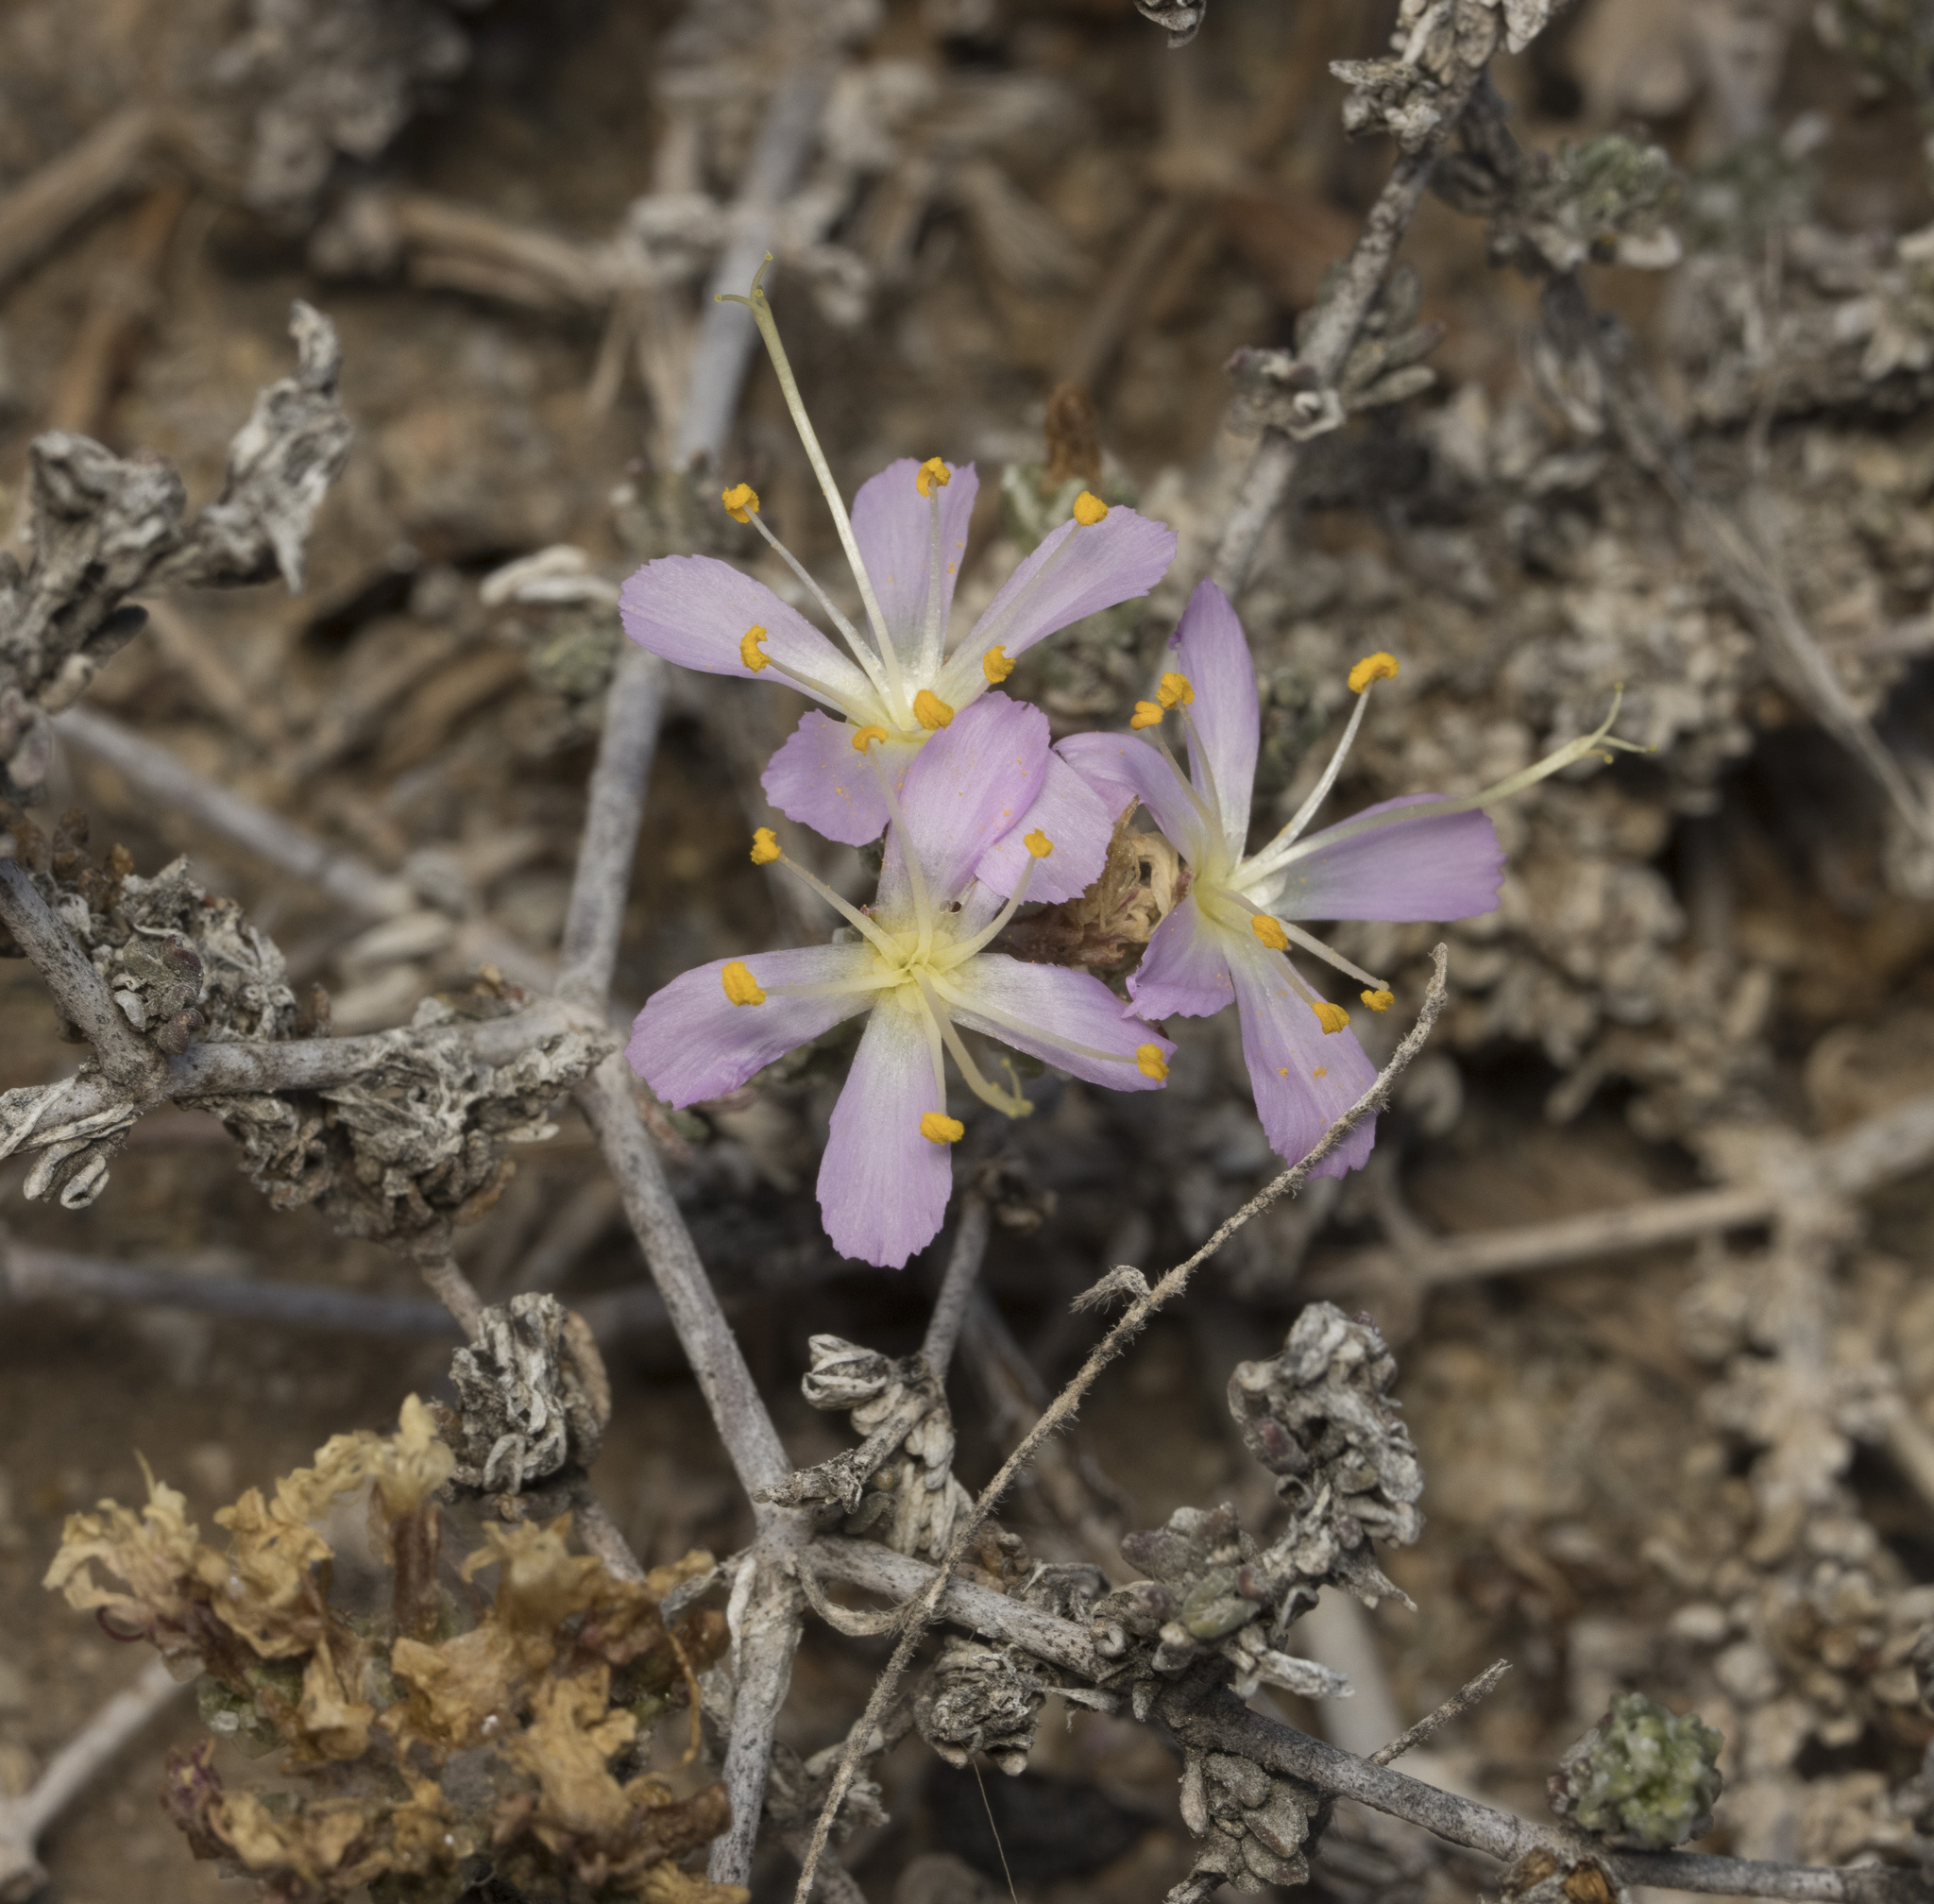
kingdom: Plantae
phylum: Tracheophyta
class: Magnoliopsida
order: Caryophyllales
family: Frankeniaceae
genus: Frankenia
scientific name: Frankenia chilensis
